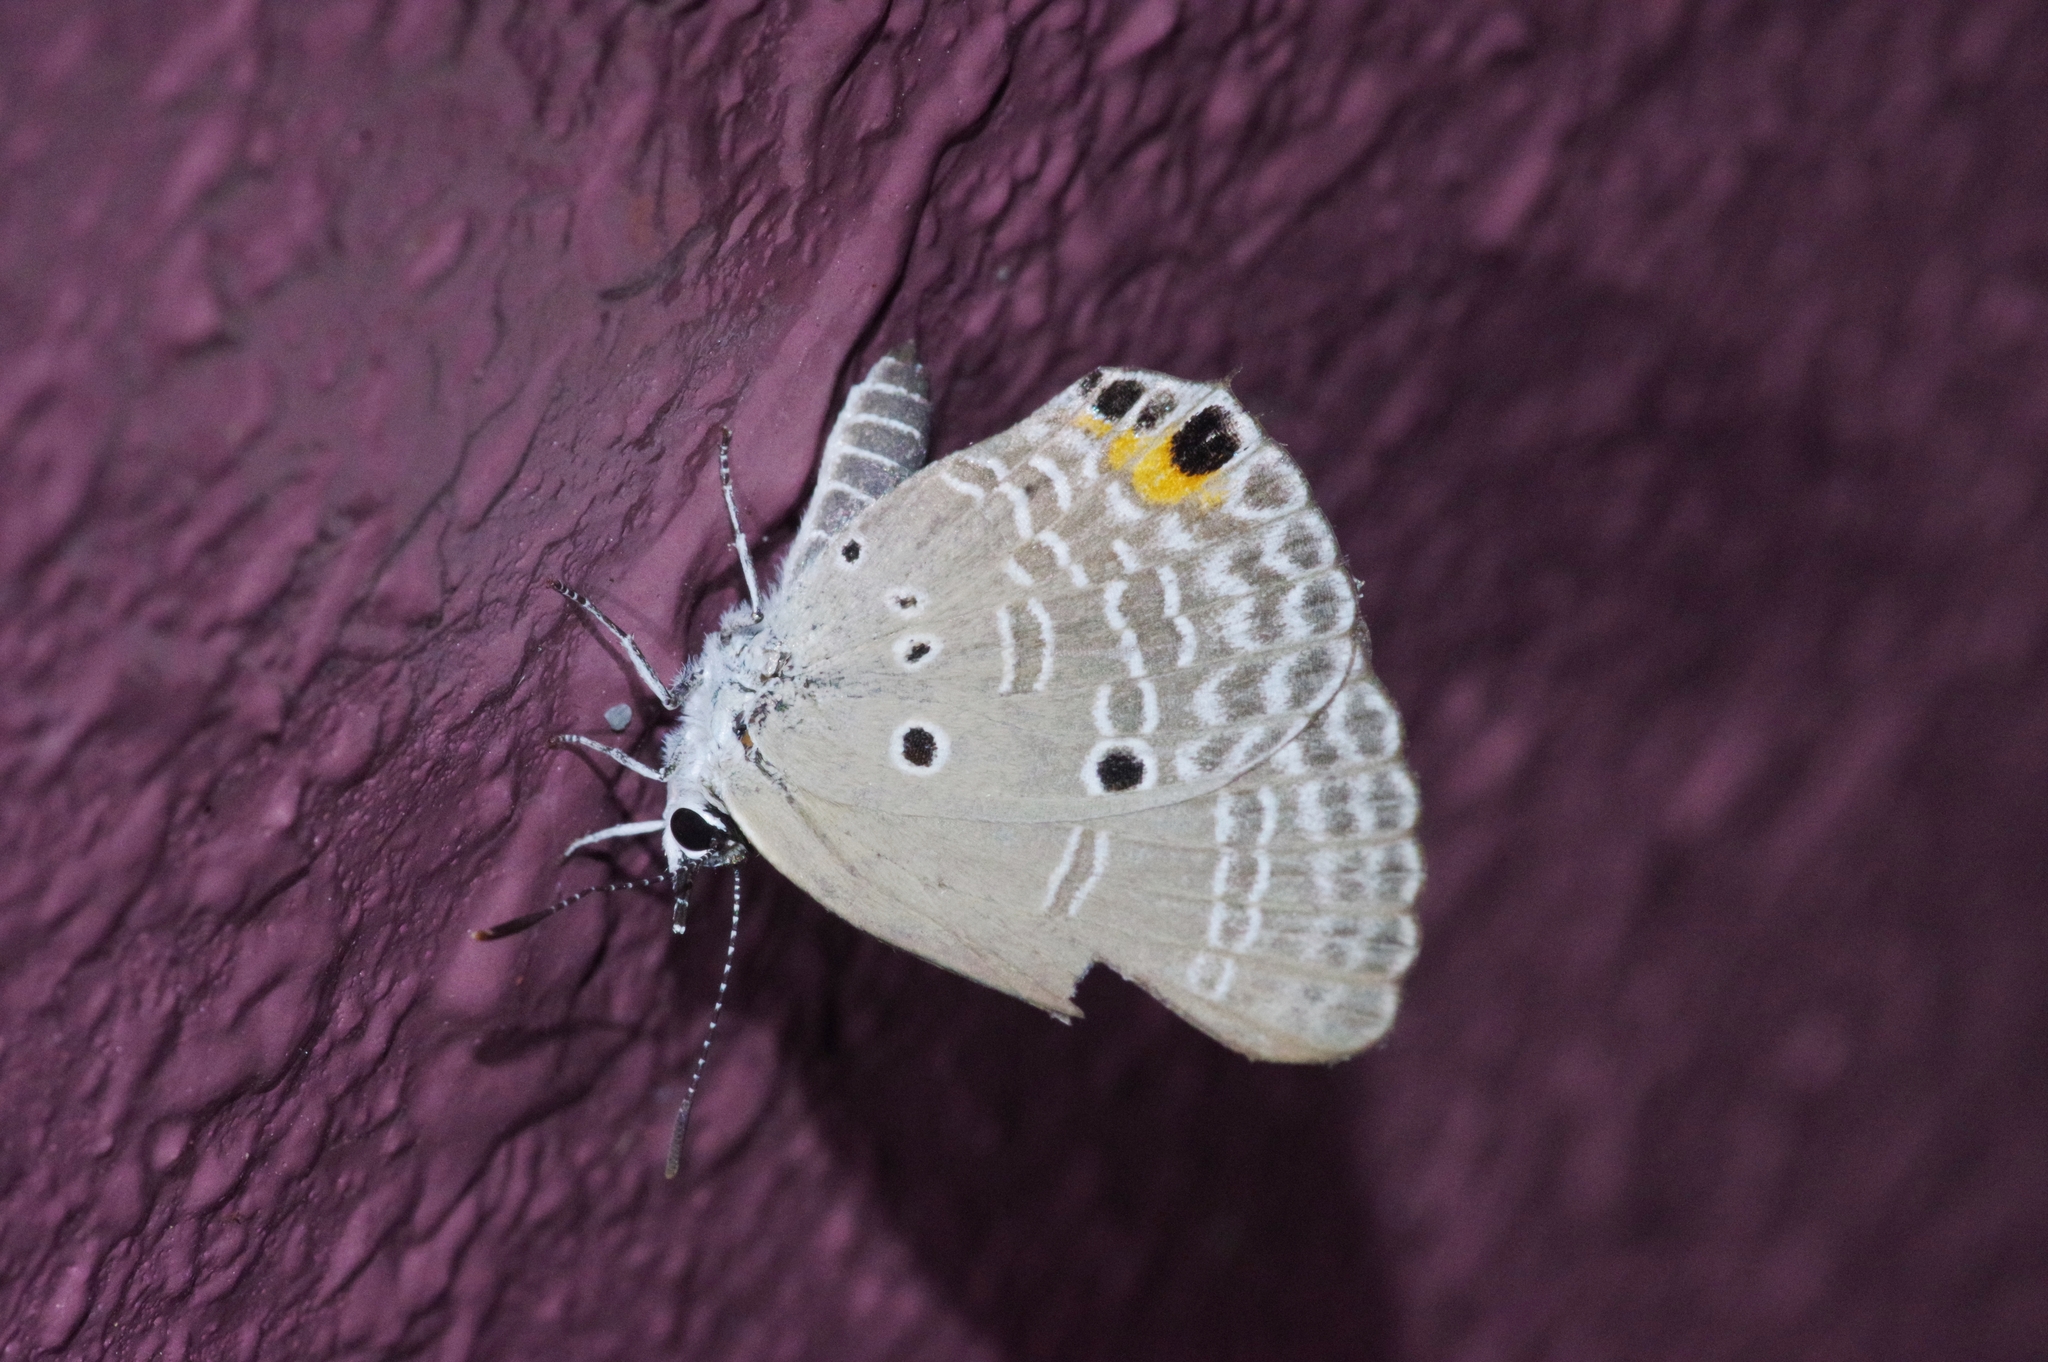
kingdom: Animalia
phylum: Arthropoda
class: Insecta
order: Lepidoptera
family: Lycaenidae
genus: Luthrodes
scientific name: Luthrodes pandava
